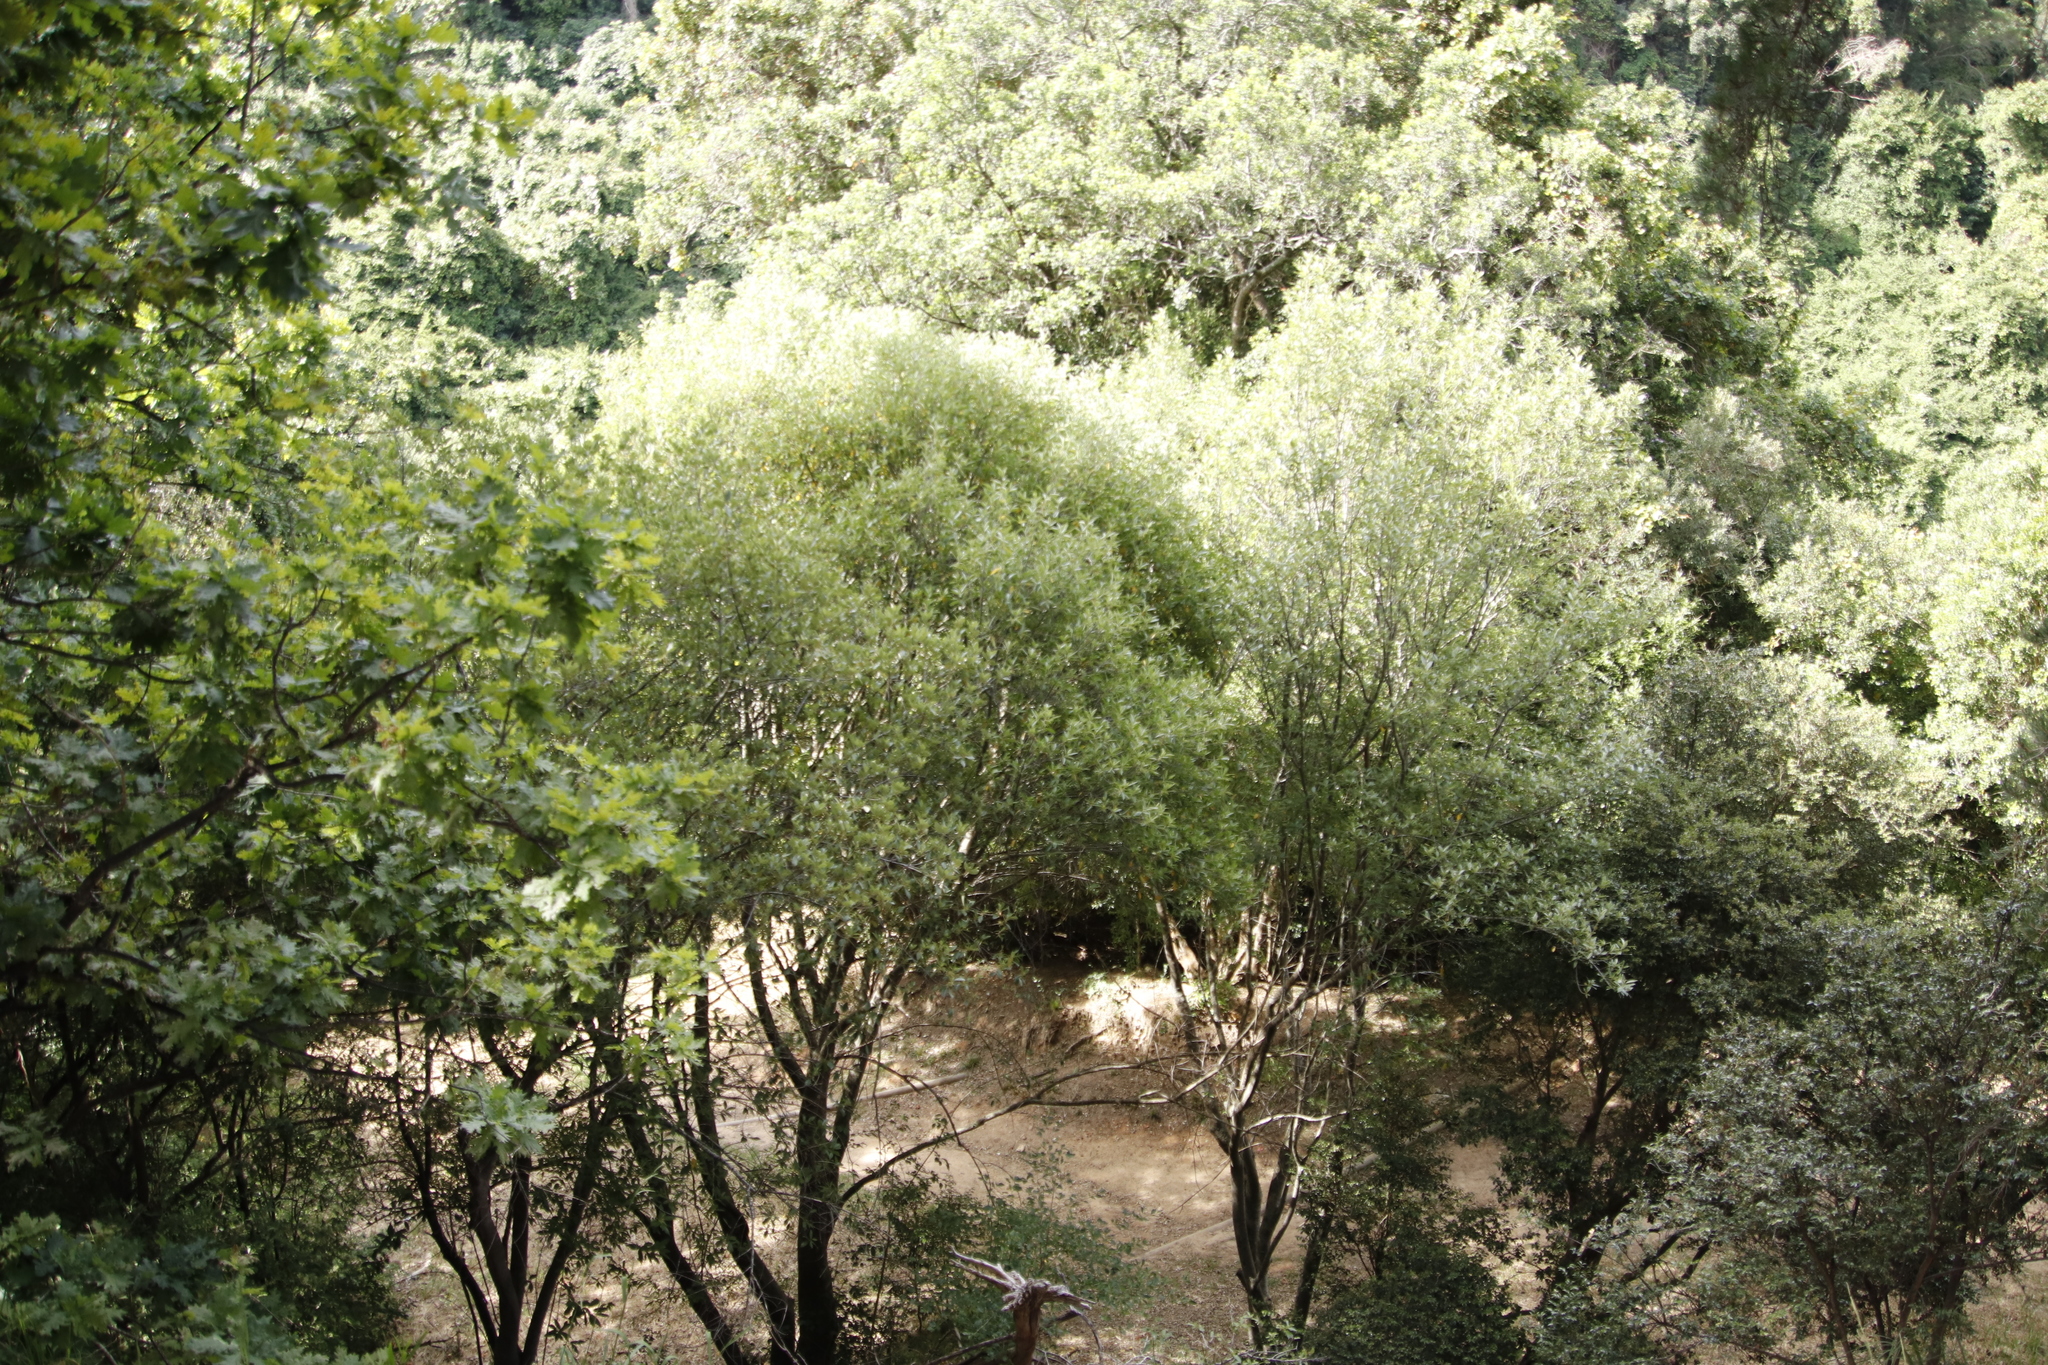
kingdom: Plantae
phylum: Tracheophyta
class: Magnoliopsida
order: Malpighiales
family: Achariaceae
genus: Kiggelaria
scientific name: Kiggelaria africana
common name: Wild peach
